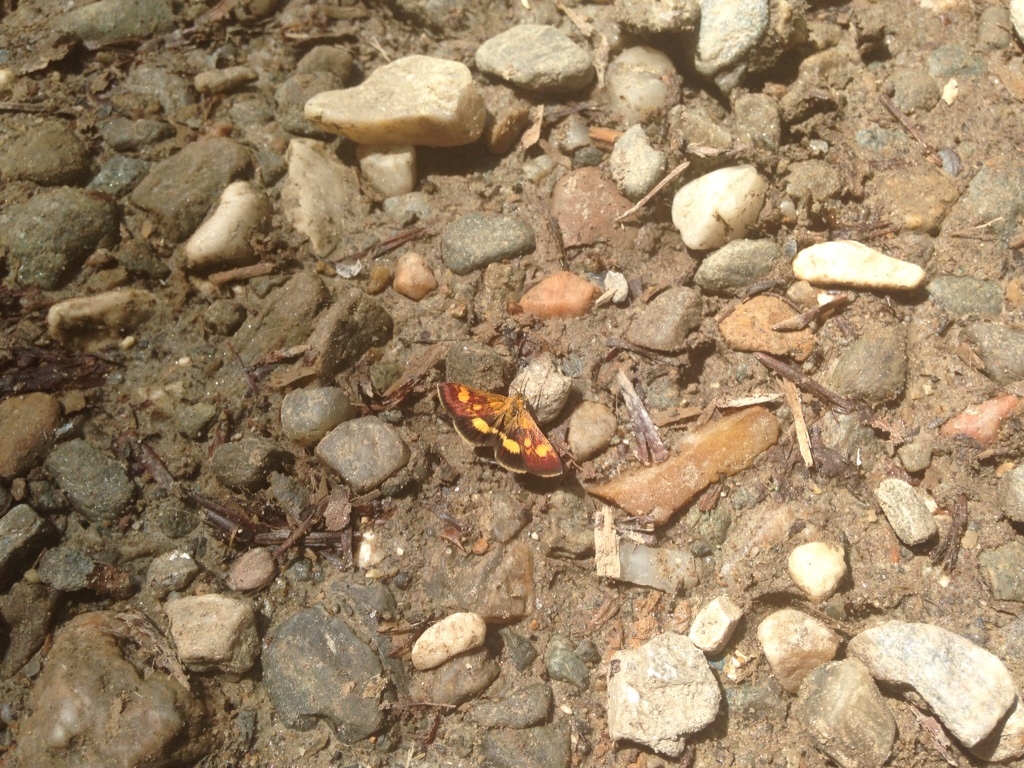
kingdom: Animalia
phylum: Arthropoda
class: Insecta
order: Lepidoptera
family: Crambidae
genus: Pyrausta
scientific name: Pyrausta falcatalis
